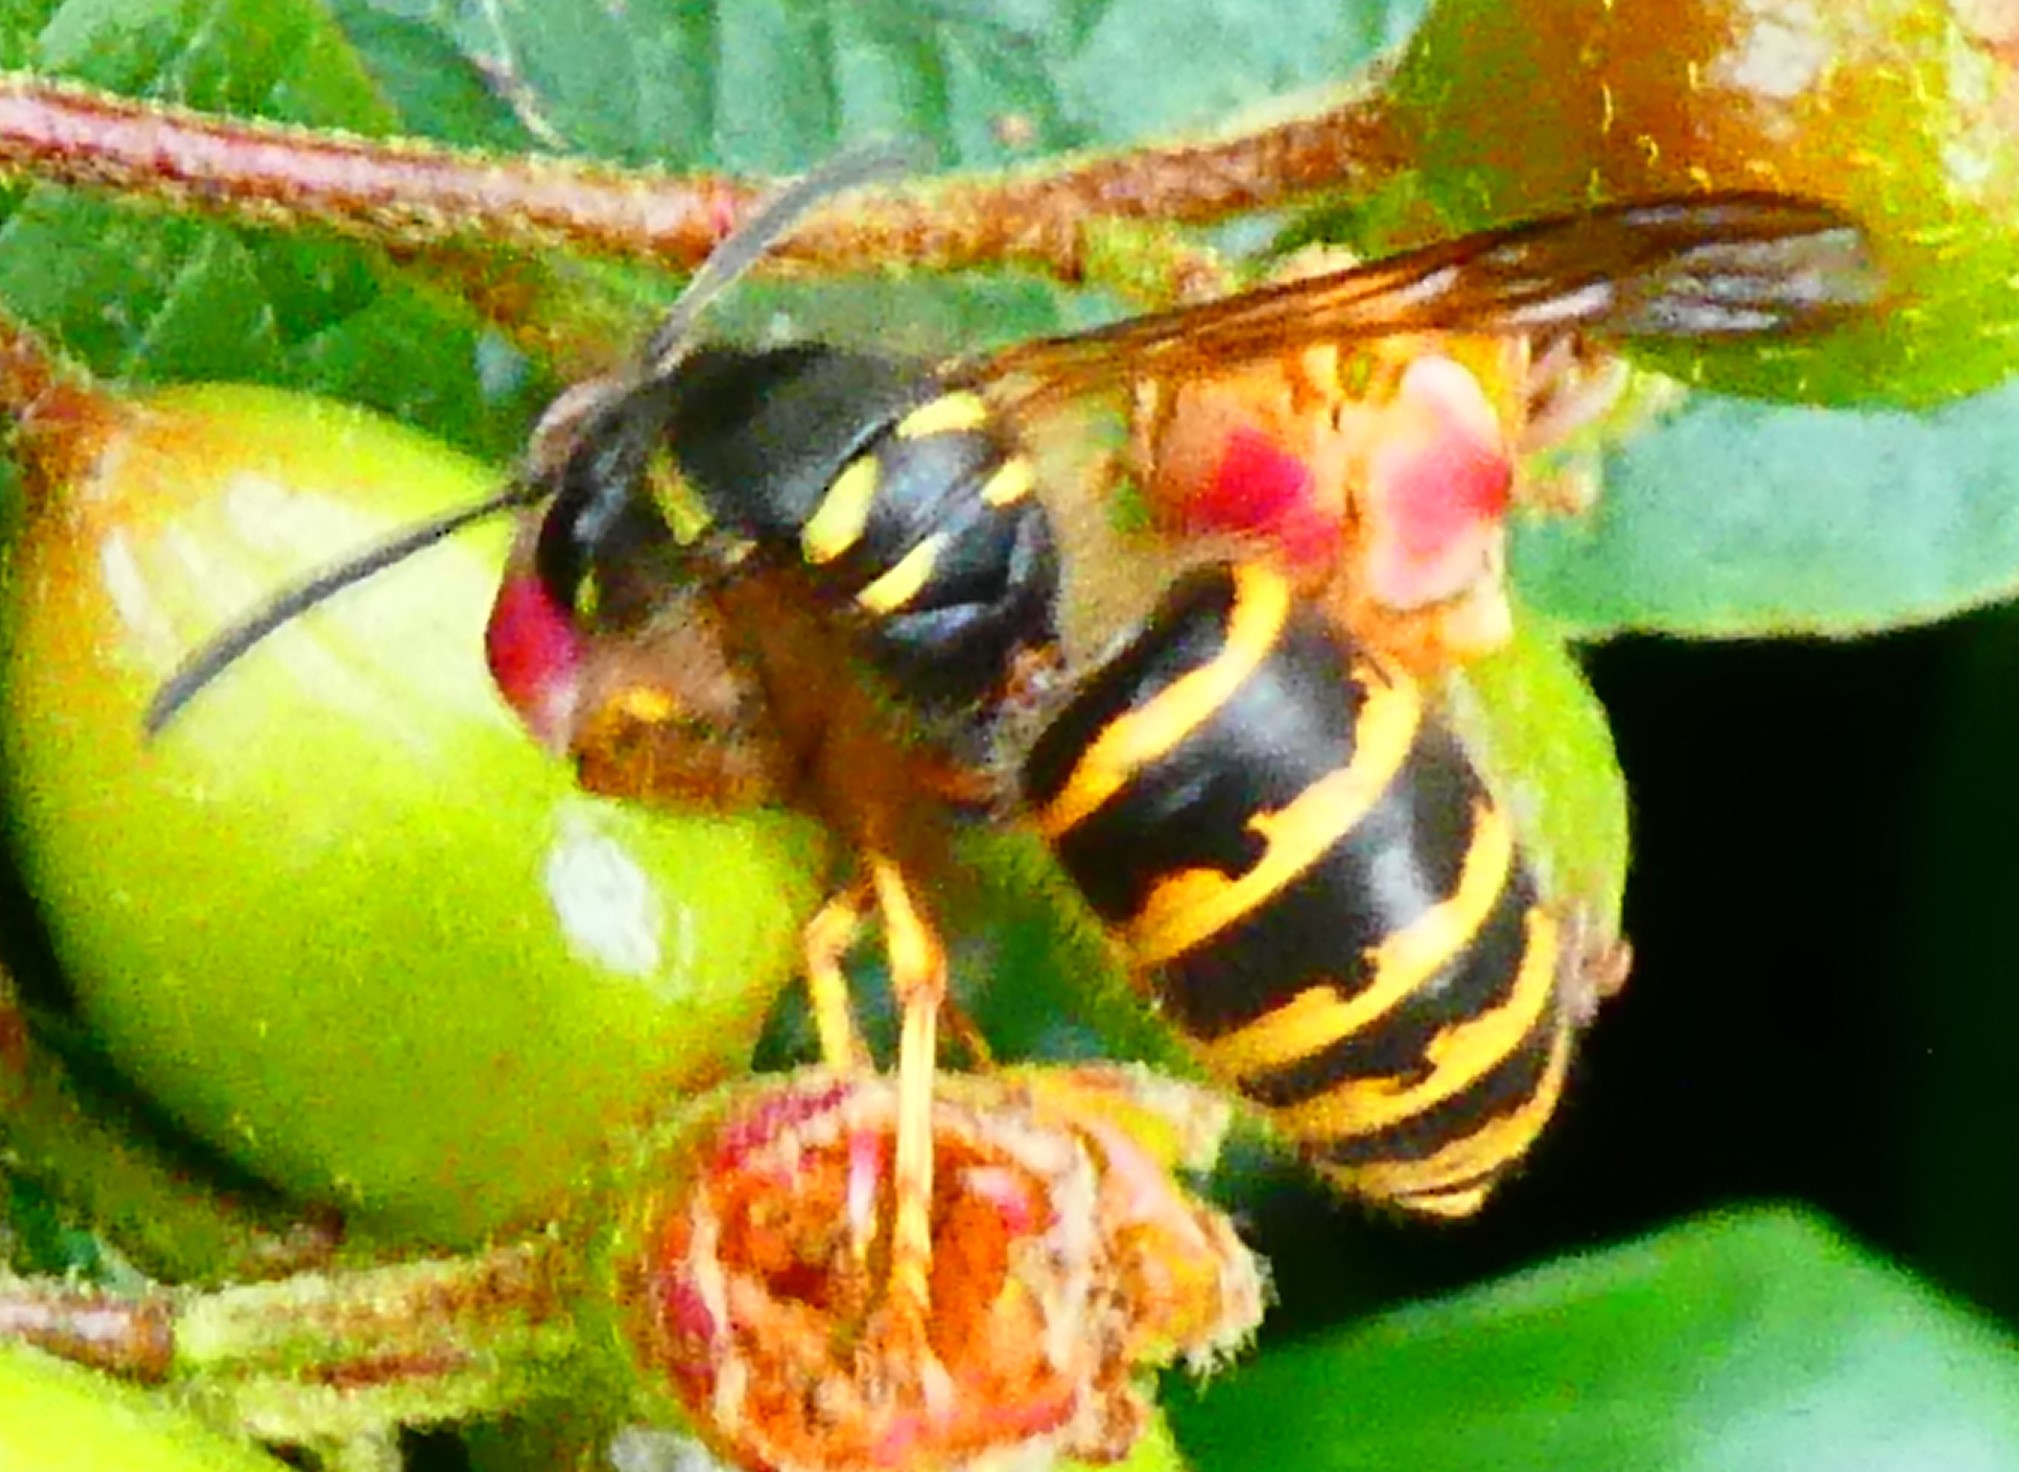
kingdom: Animalia
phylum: Arthropoda
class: Insecta
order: Hymenoptera
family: Vespidae
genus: Dolichovespula
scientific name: Dolichovespula saxonica
